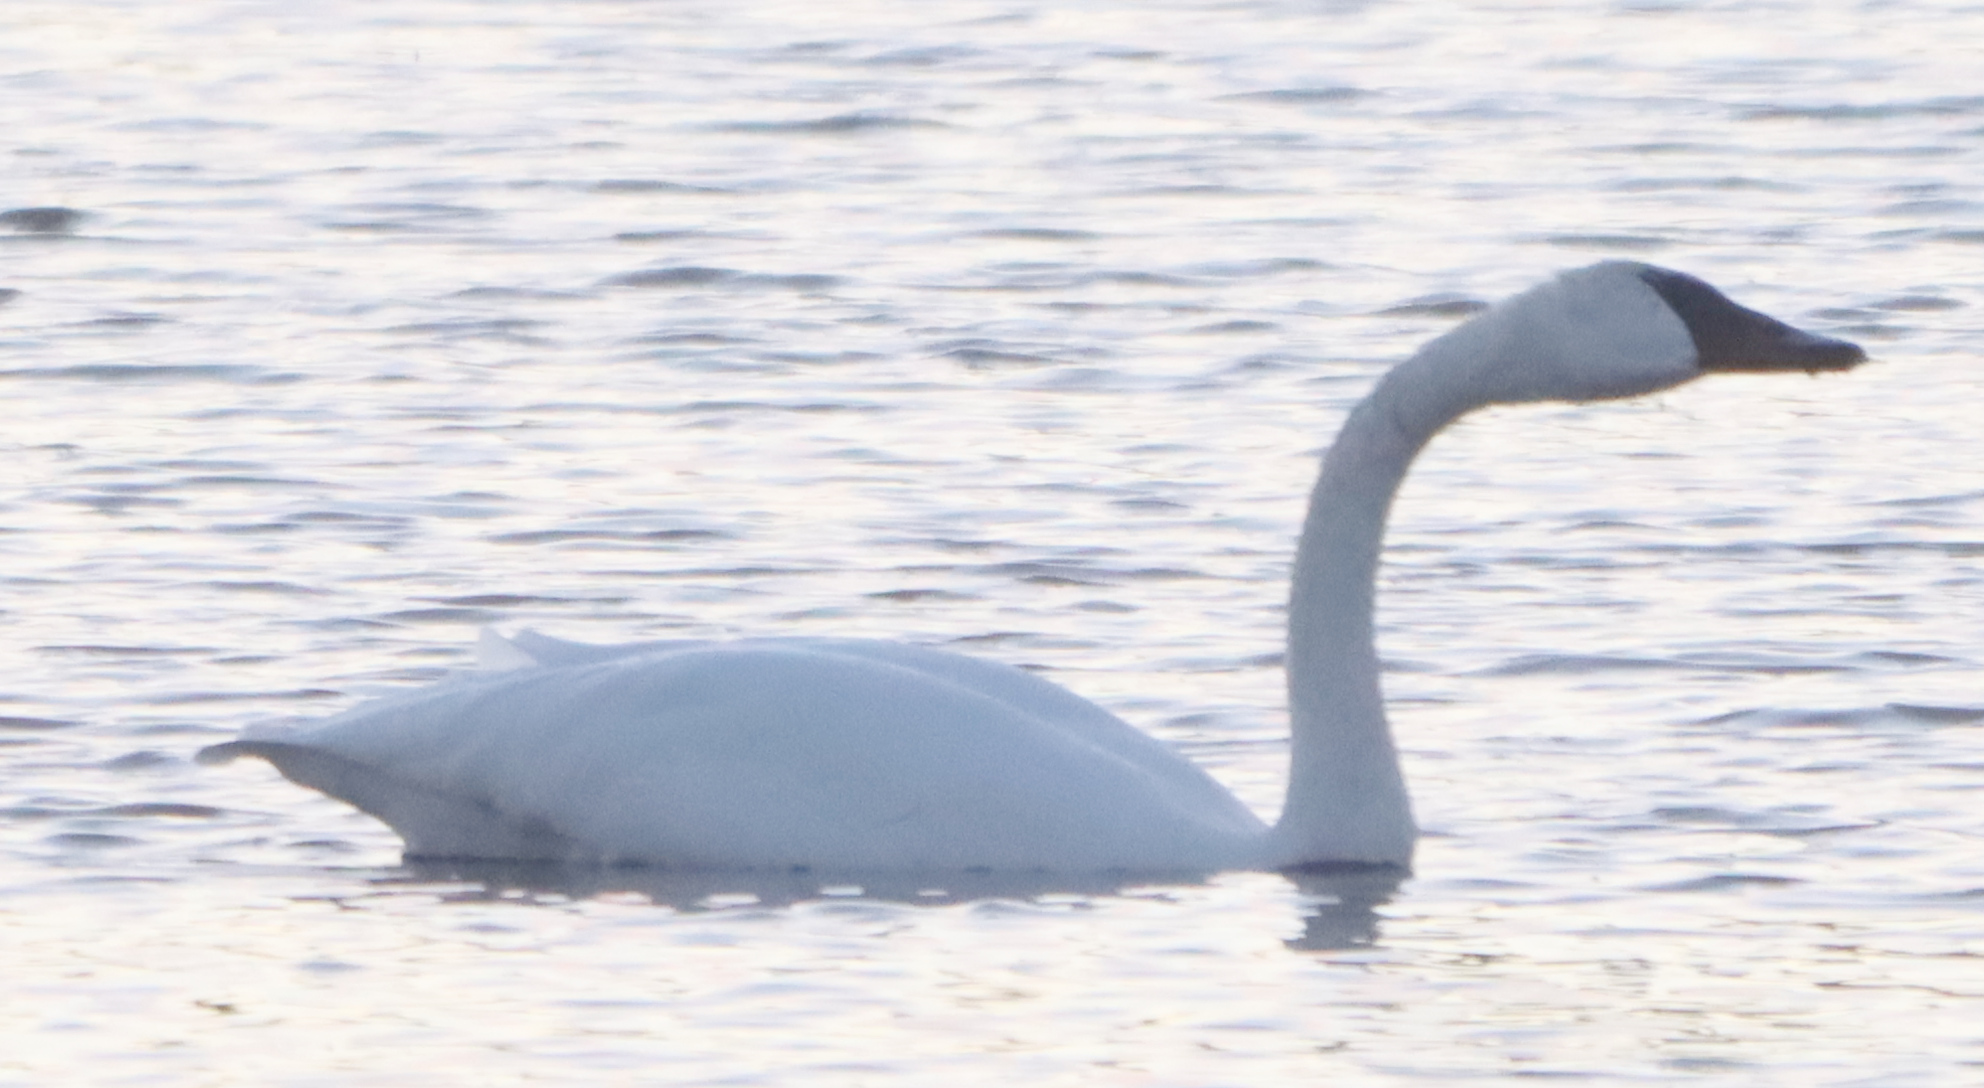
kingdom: Animalia
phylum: Chordata
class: Aves
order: Anseriformes
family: Anatidae
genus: Cygnus
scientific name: Cygnus buccinator
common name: Trumpeter swan
